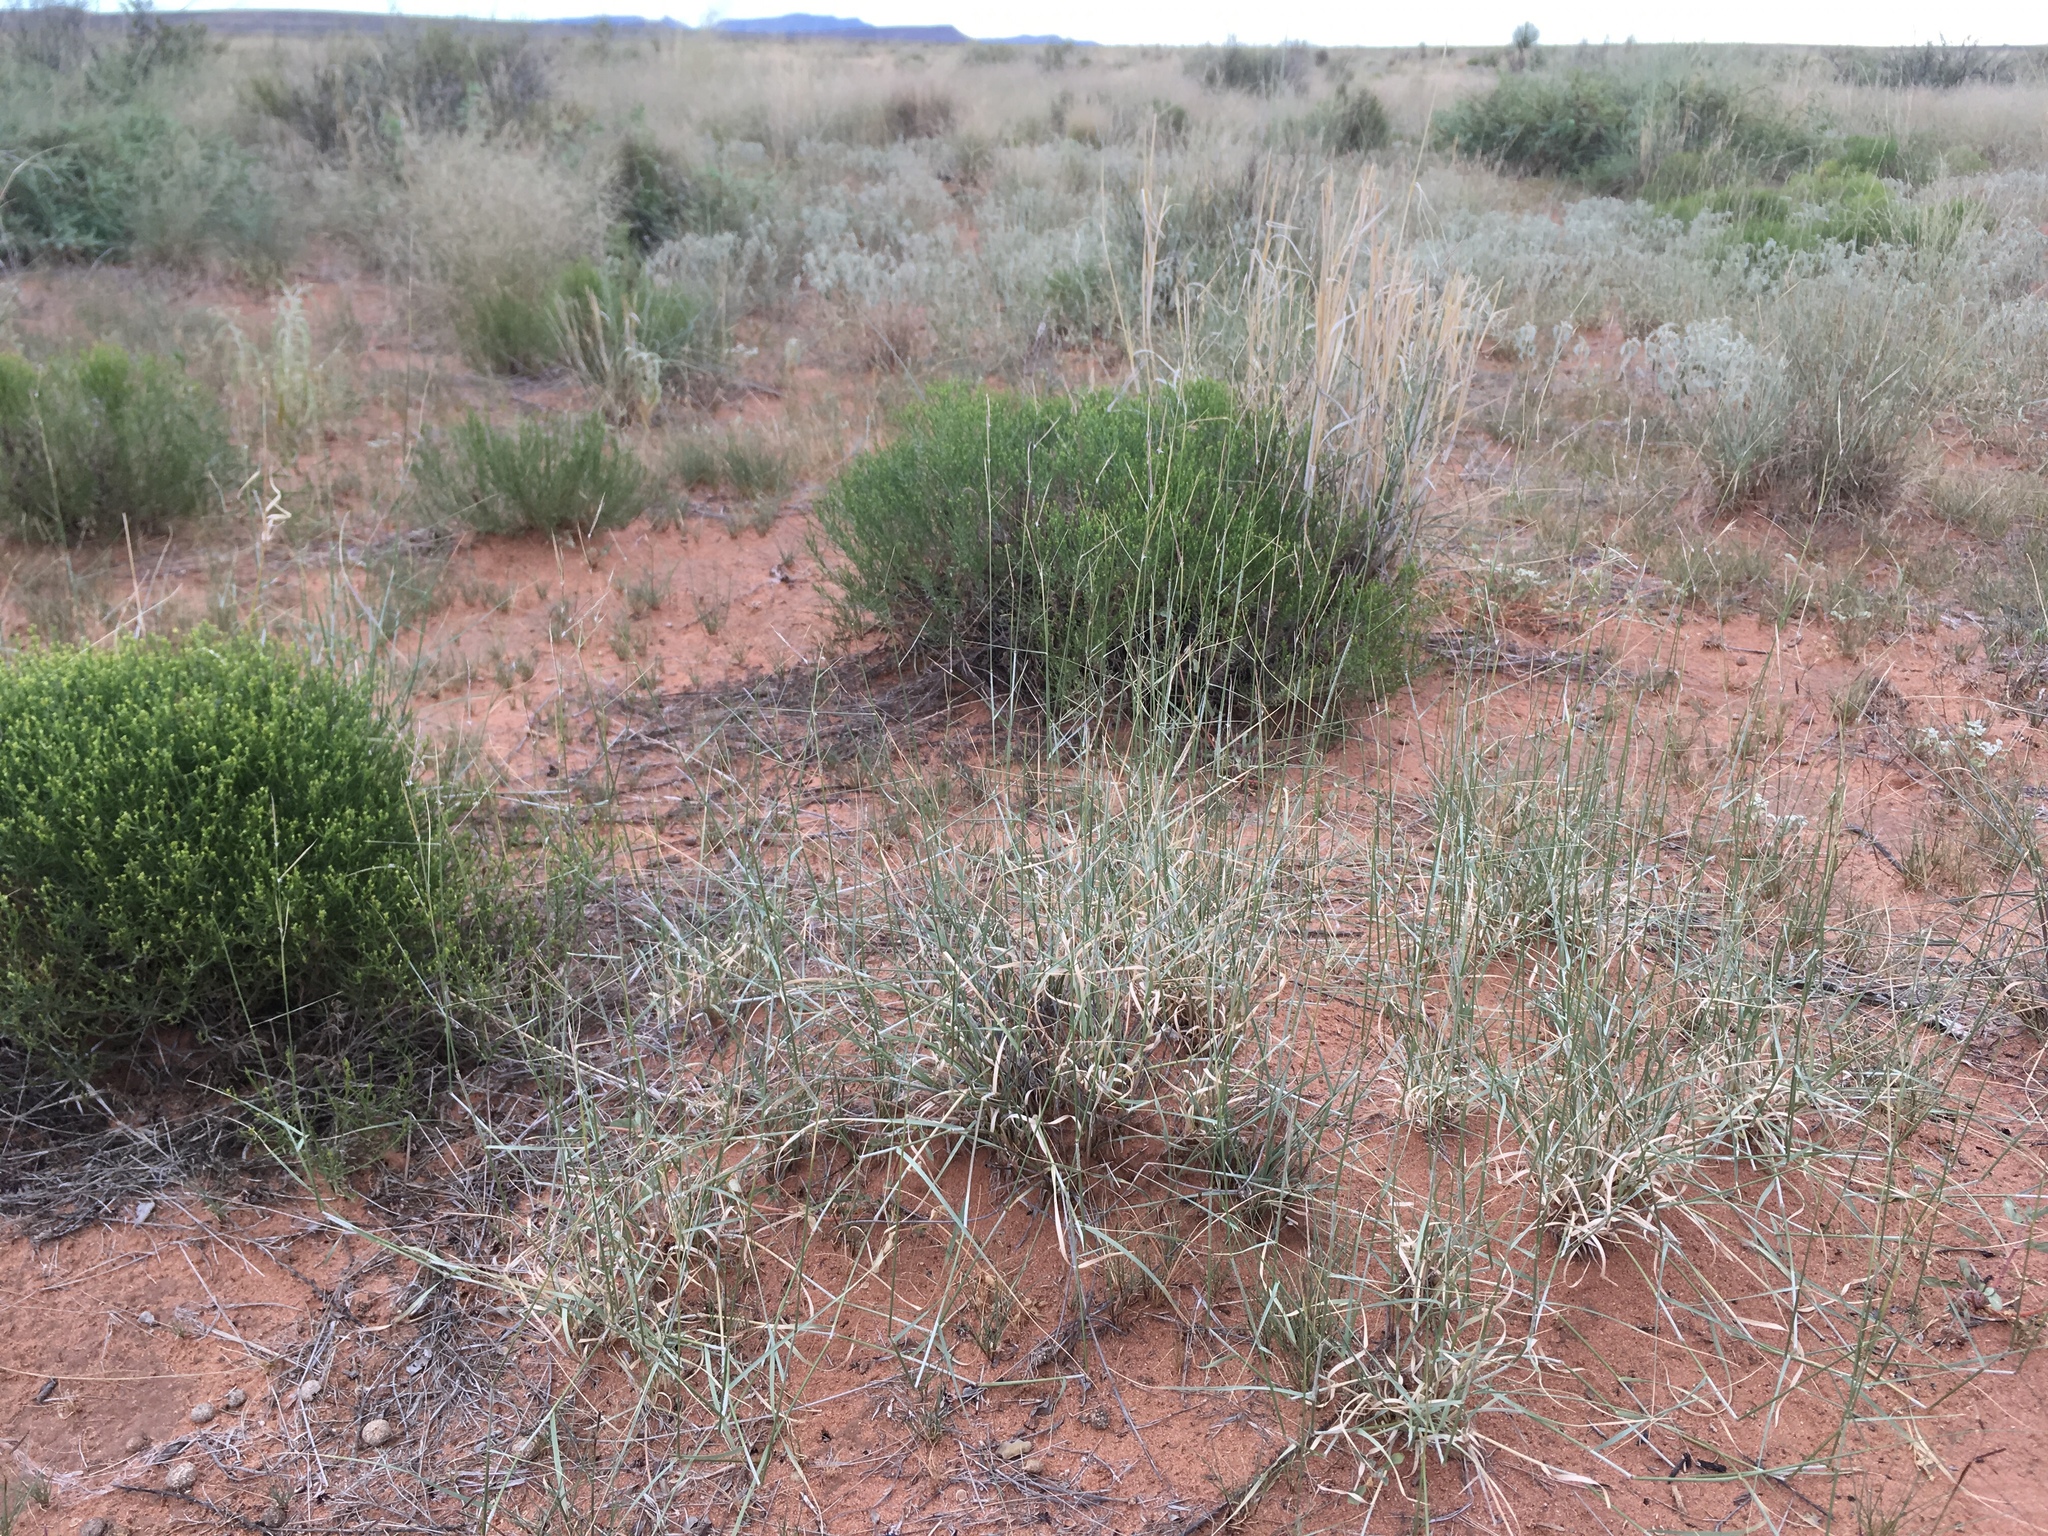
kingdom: Plantae
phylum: Tracheophyta
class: Liliopsida
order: Poales
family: Poaceae
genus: Bouteloua
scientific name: Bouteloua eriopoda
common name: Woolly foot grama
